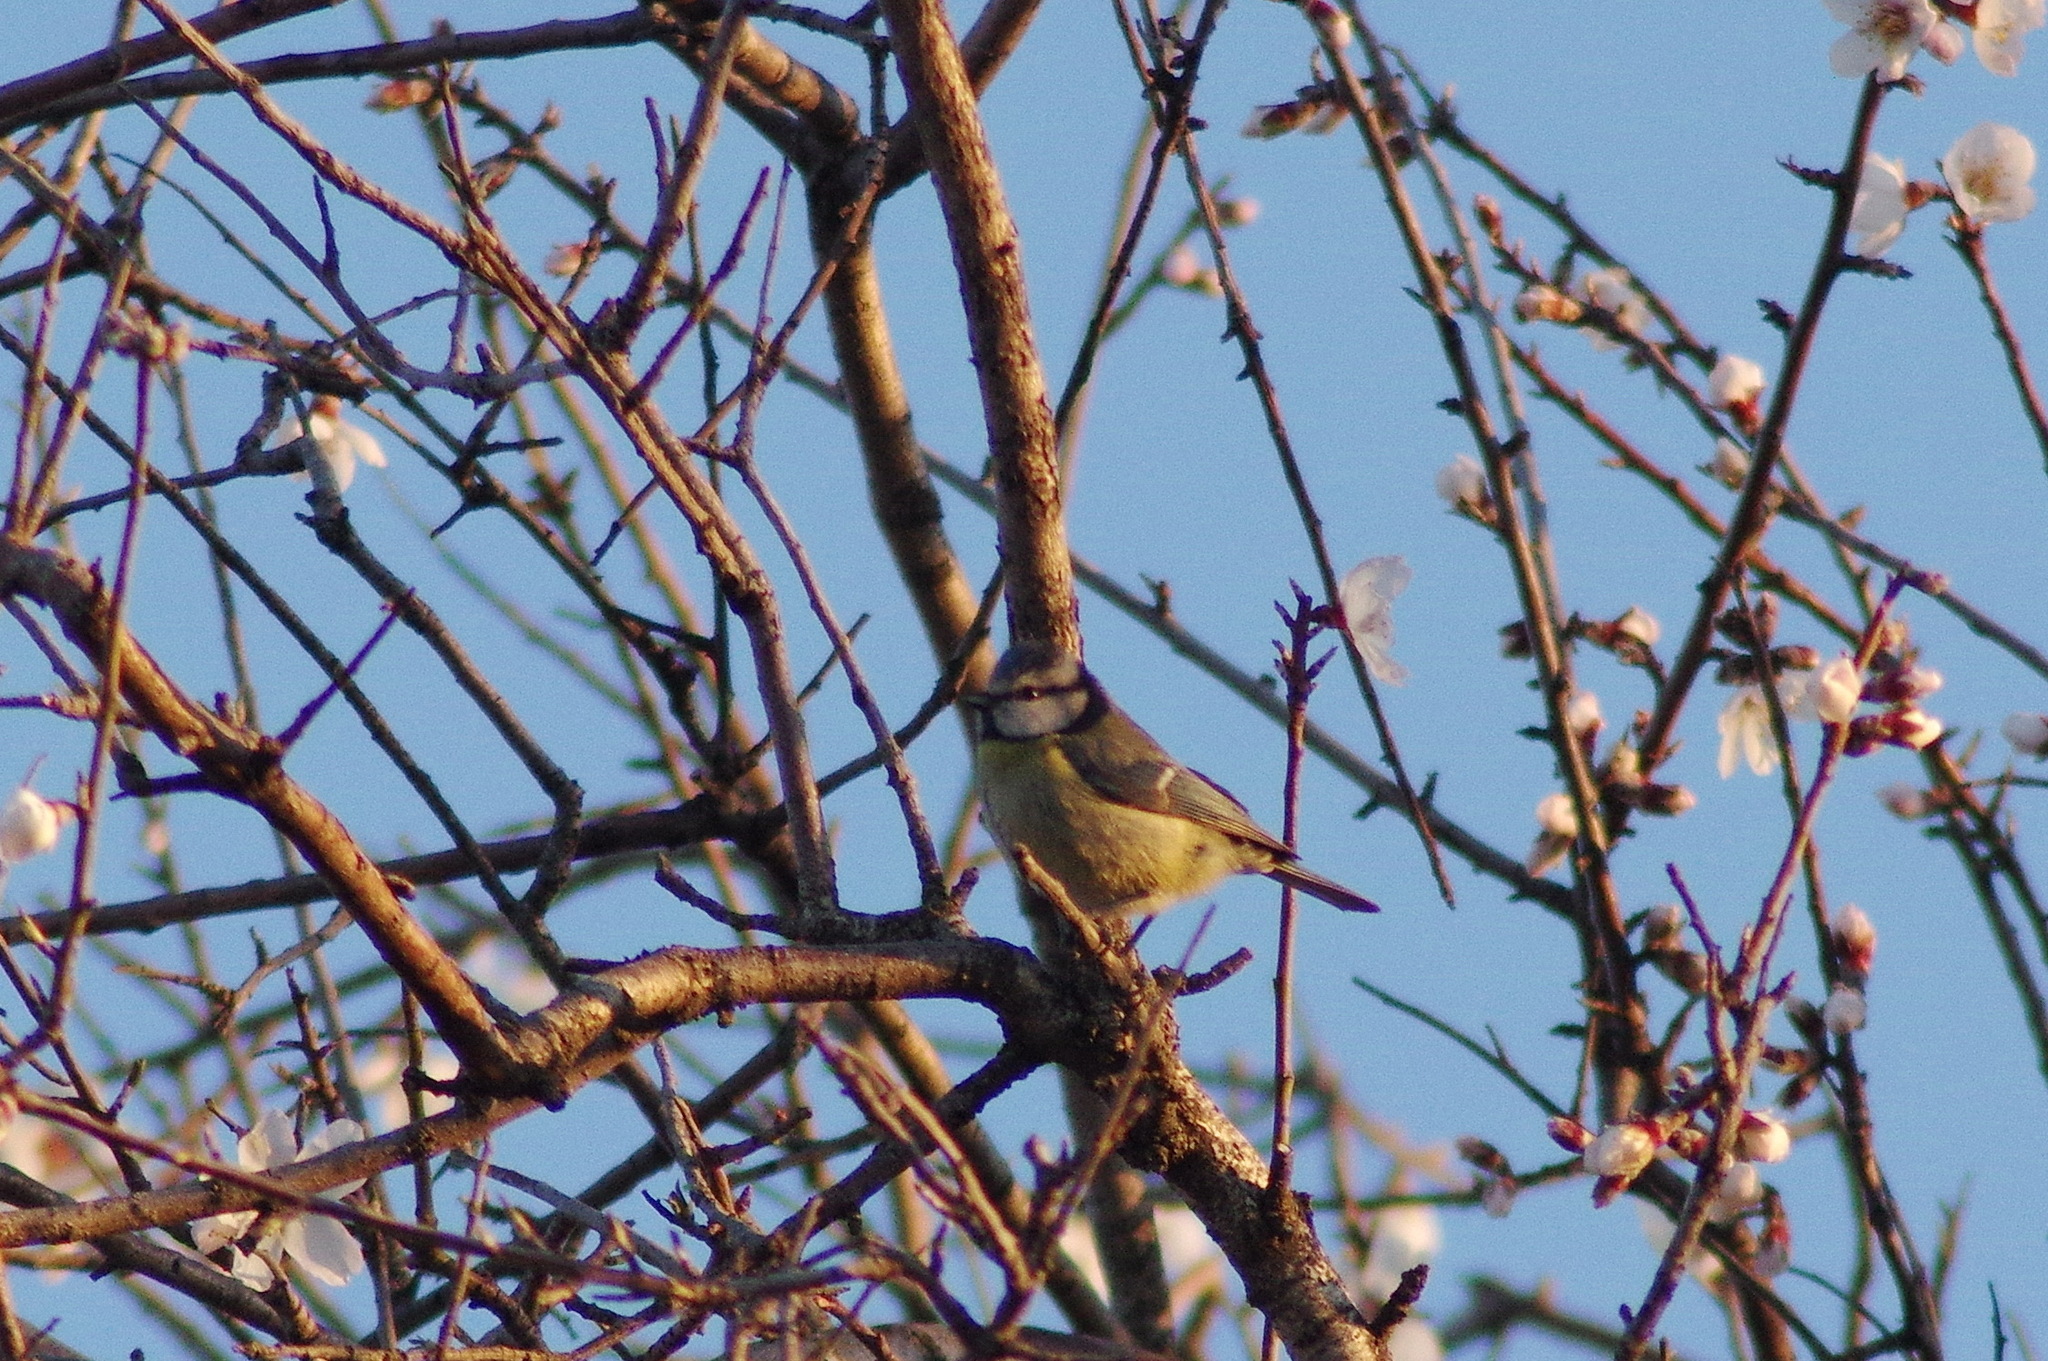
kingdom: Animalia
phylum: Chordata
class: Aves
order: Passeriformes
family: Paridae
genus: Cyanistes
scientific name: Cyanistes caeruleus
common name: Eurasian blue tit
